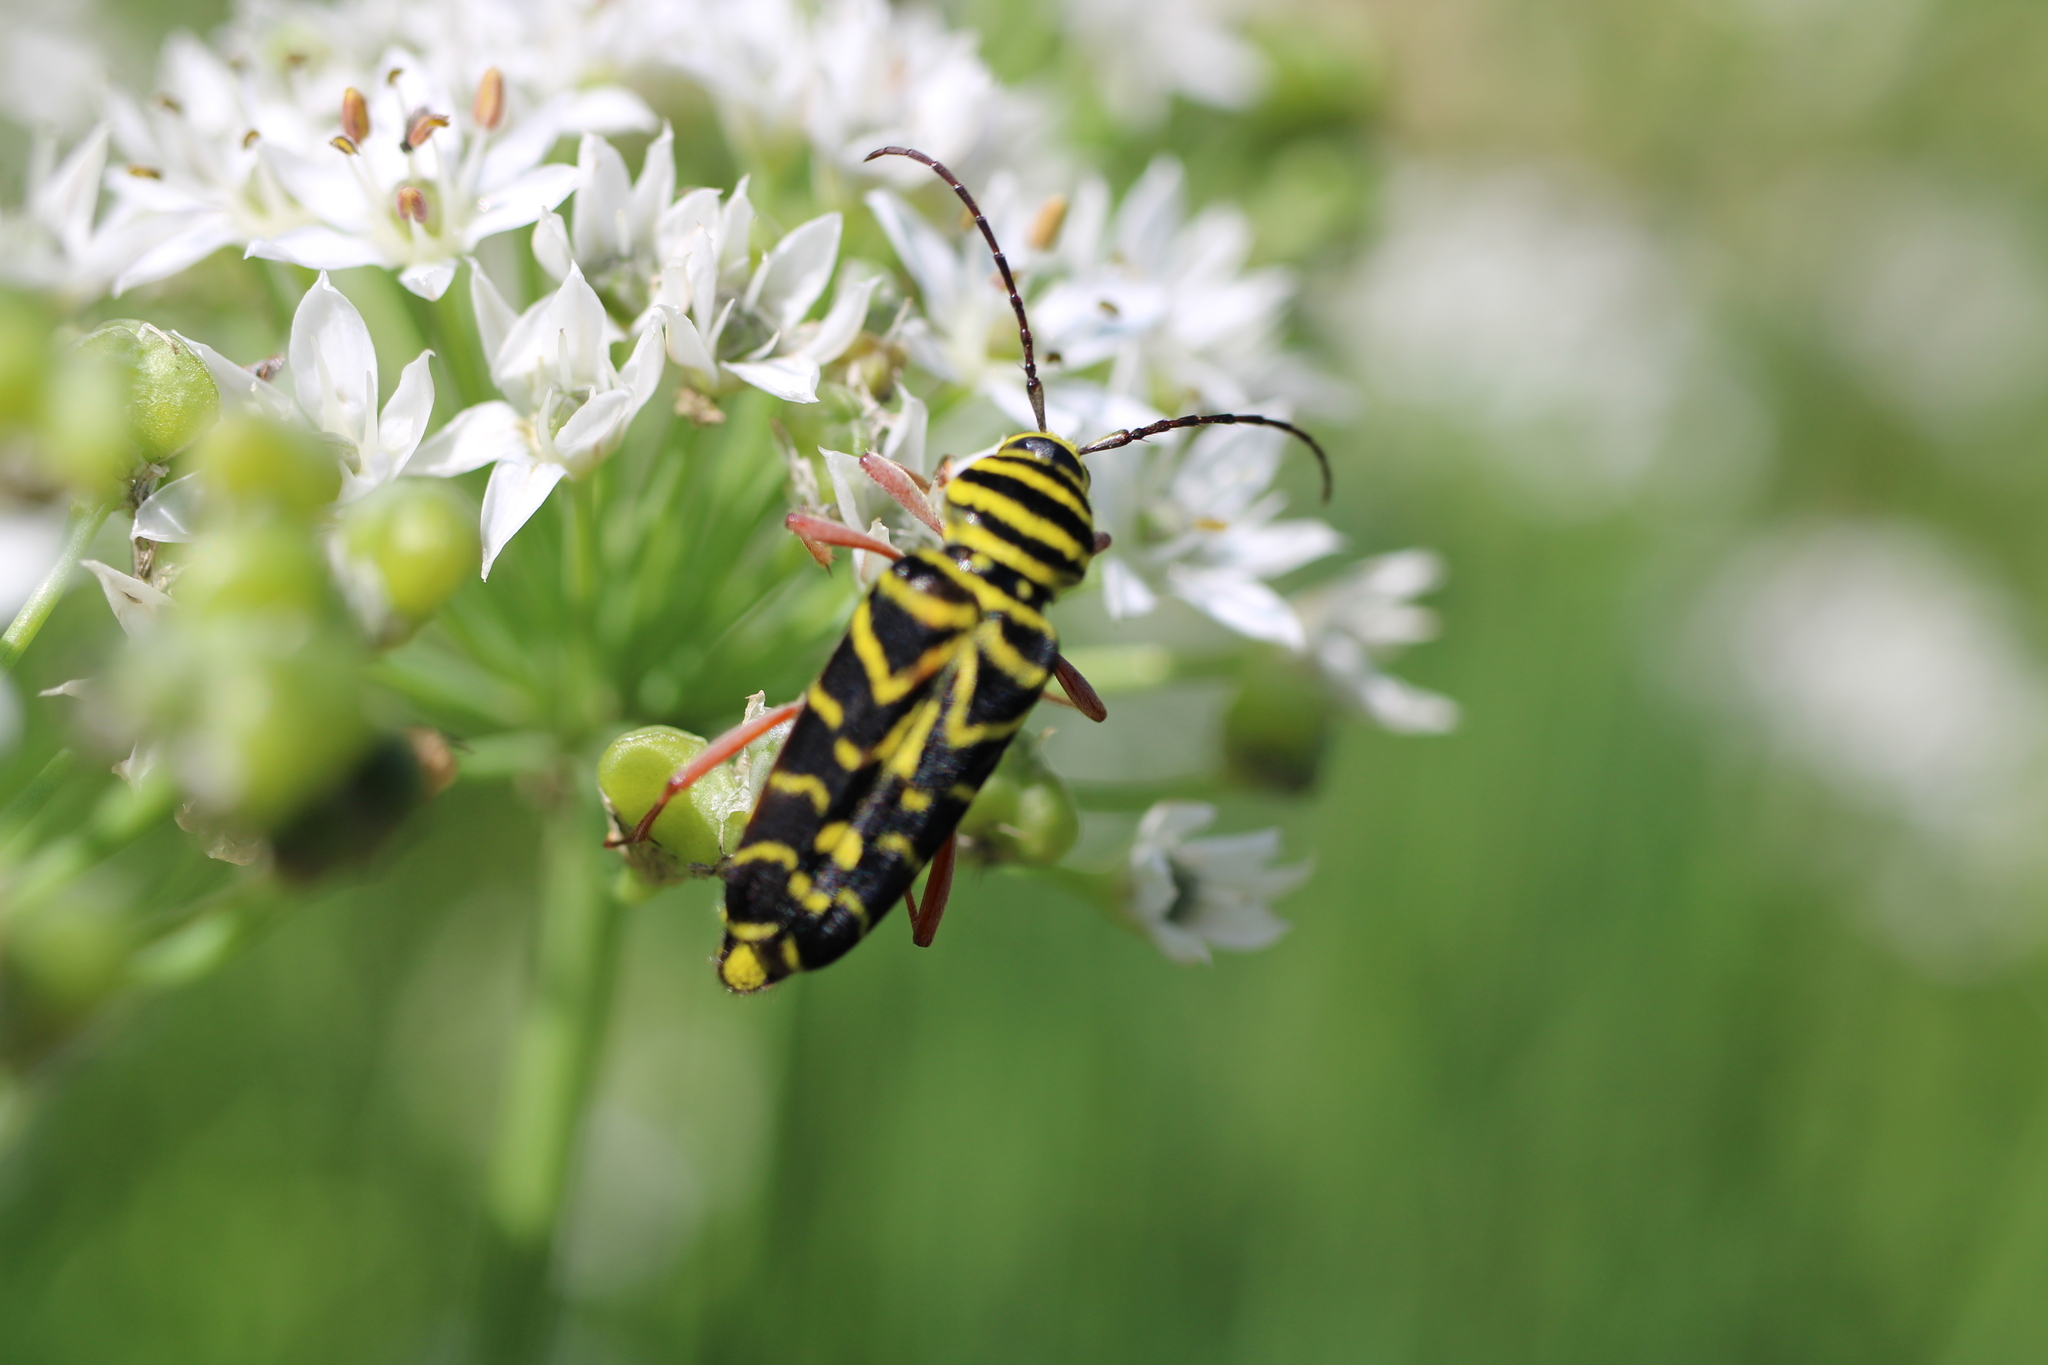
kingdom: Animalia
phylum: Arthropoda
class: Insecta
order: Coleoptera
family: Cerambycidae
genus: Megacyllene
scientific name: Megacyllene robiniae
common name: Locust borer
